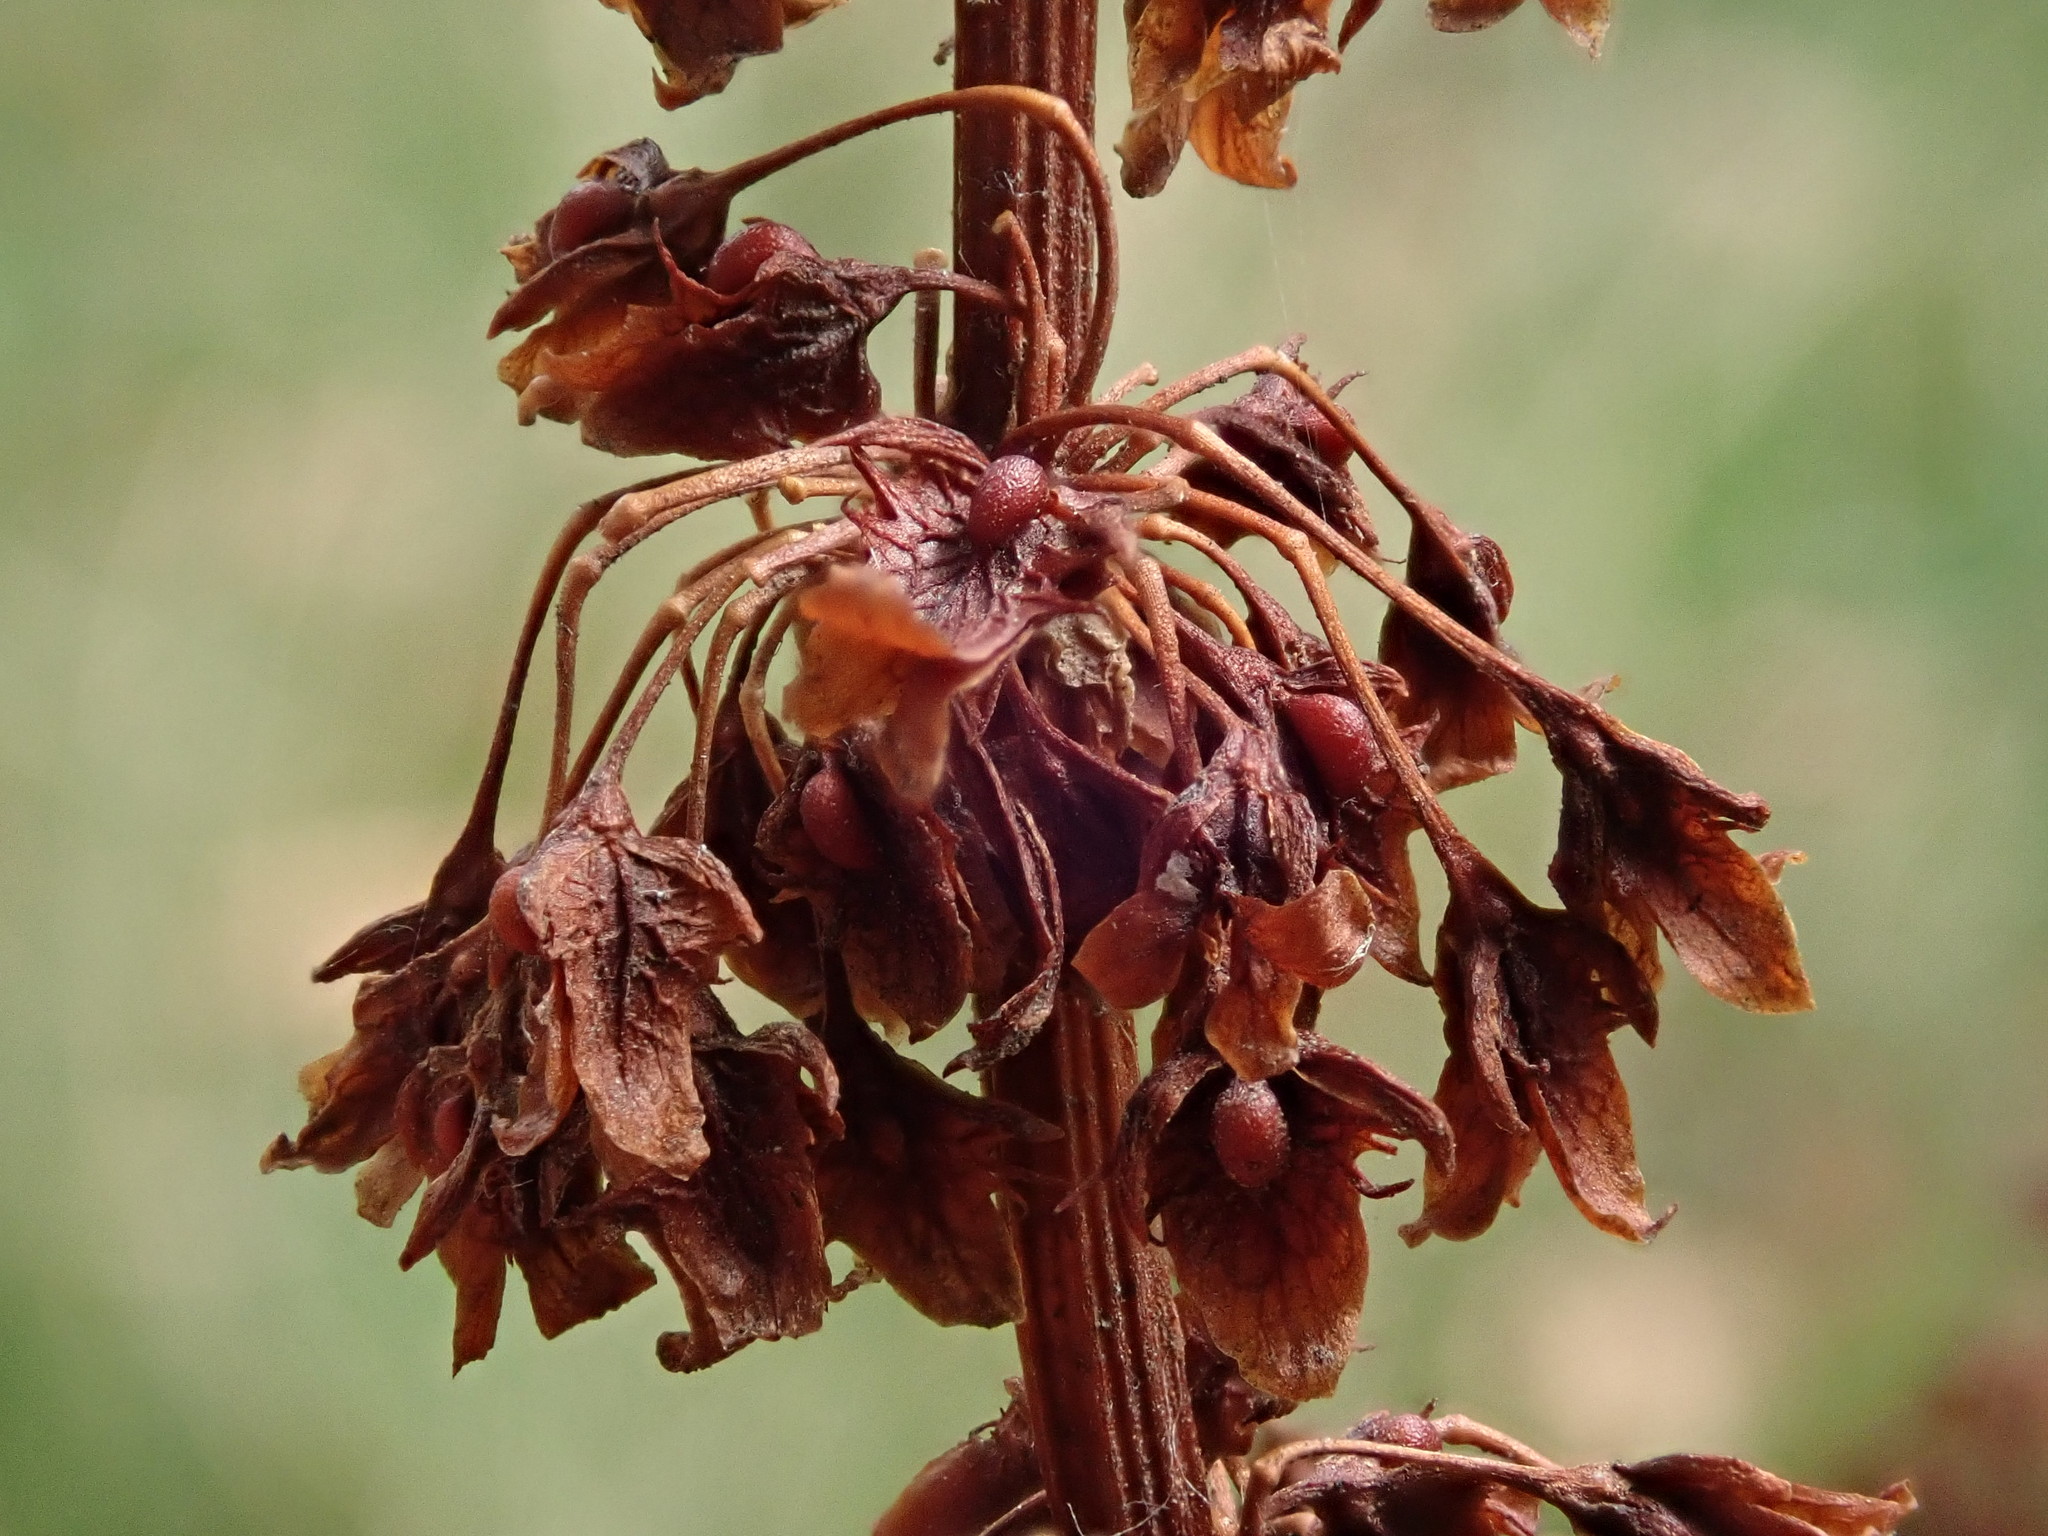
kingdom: Plantae
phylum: Tracheophyta
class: Magnoliopsida
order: Caryophyllales
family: Polygonaceae
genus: Rumex
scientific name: Rumex obtusifolius
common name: Bitter dock
